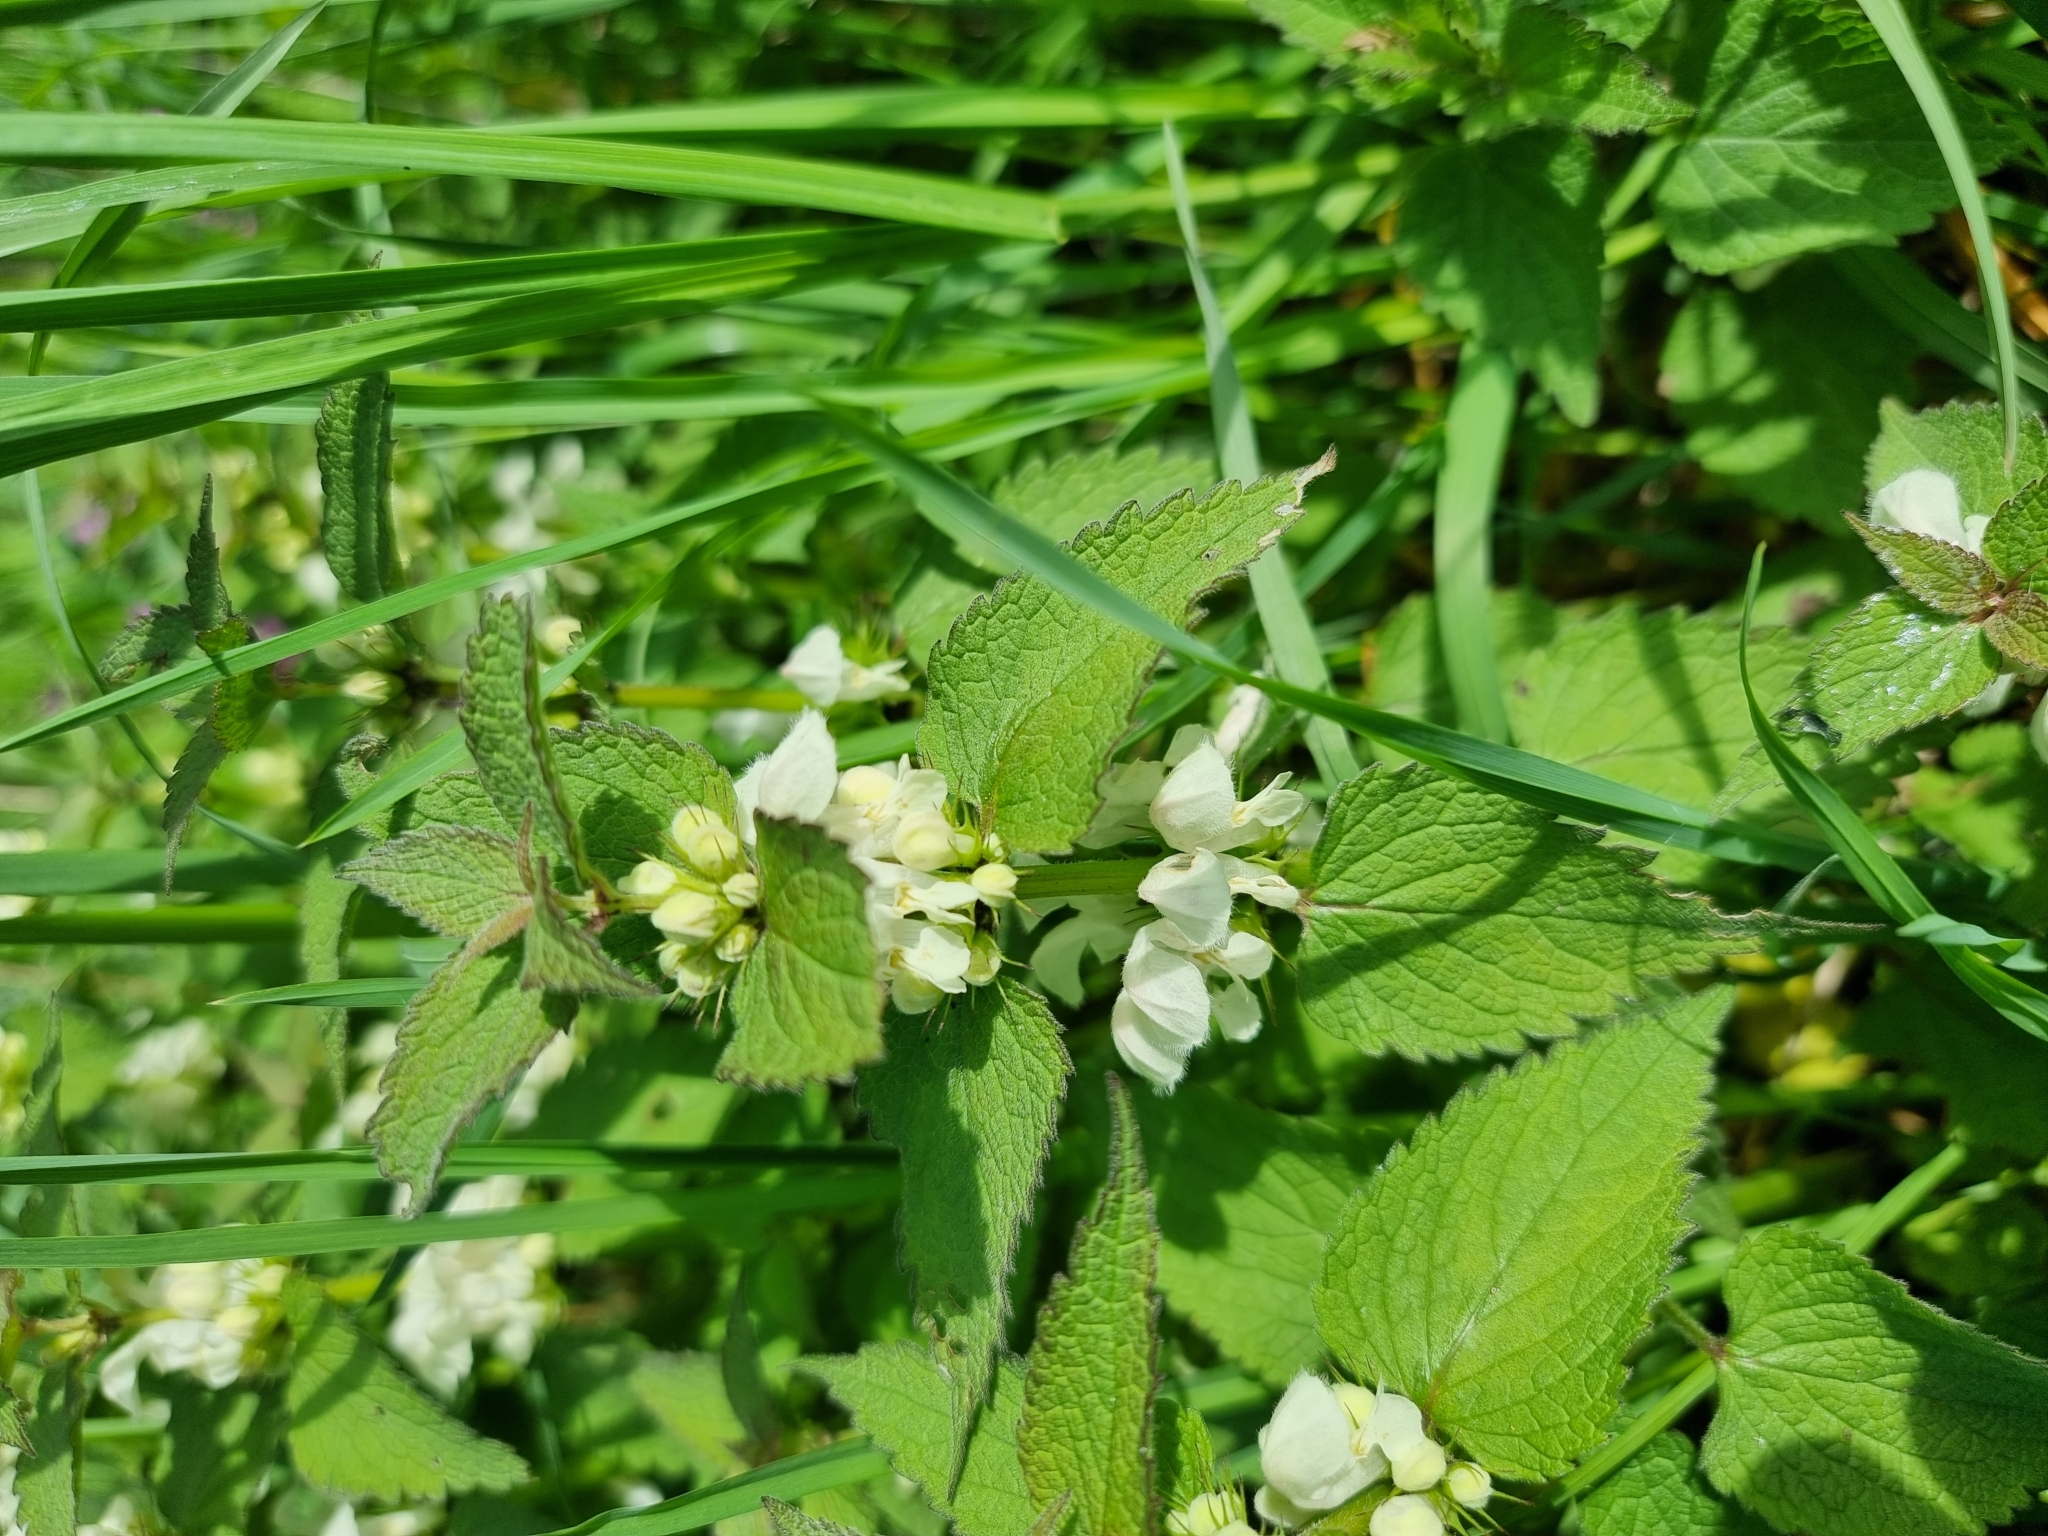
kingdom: Plantae
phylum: Tracheophyta
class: Magnoliopsida
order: Lamiales
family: Lamiaceae
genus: Lamium
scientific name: Lamium album
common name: White dead-nettle
